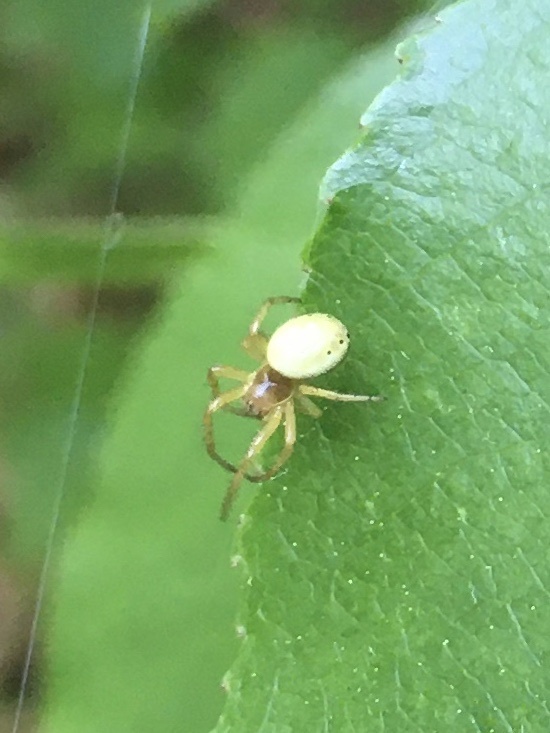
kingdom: Animalia
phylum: Arthropoda
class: Arachnida
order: Araneae
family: Araneidae
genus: Araniella
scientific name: Araniella displicata
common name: Sixspotted orb weaver
